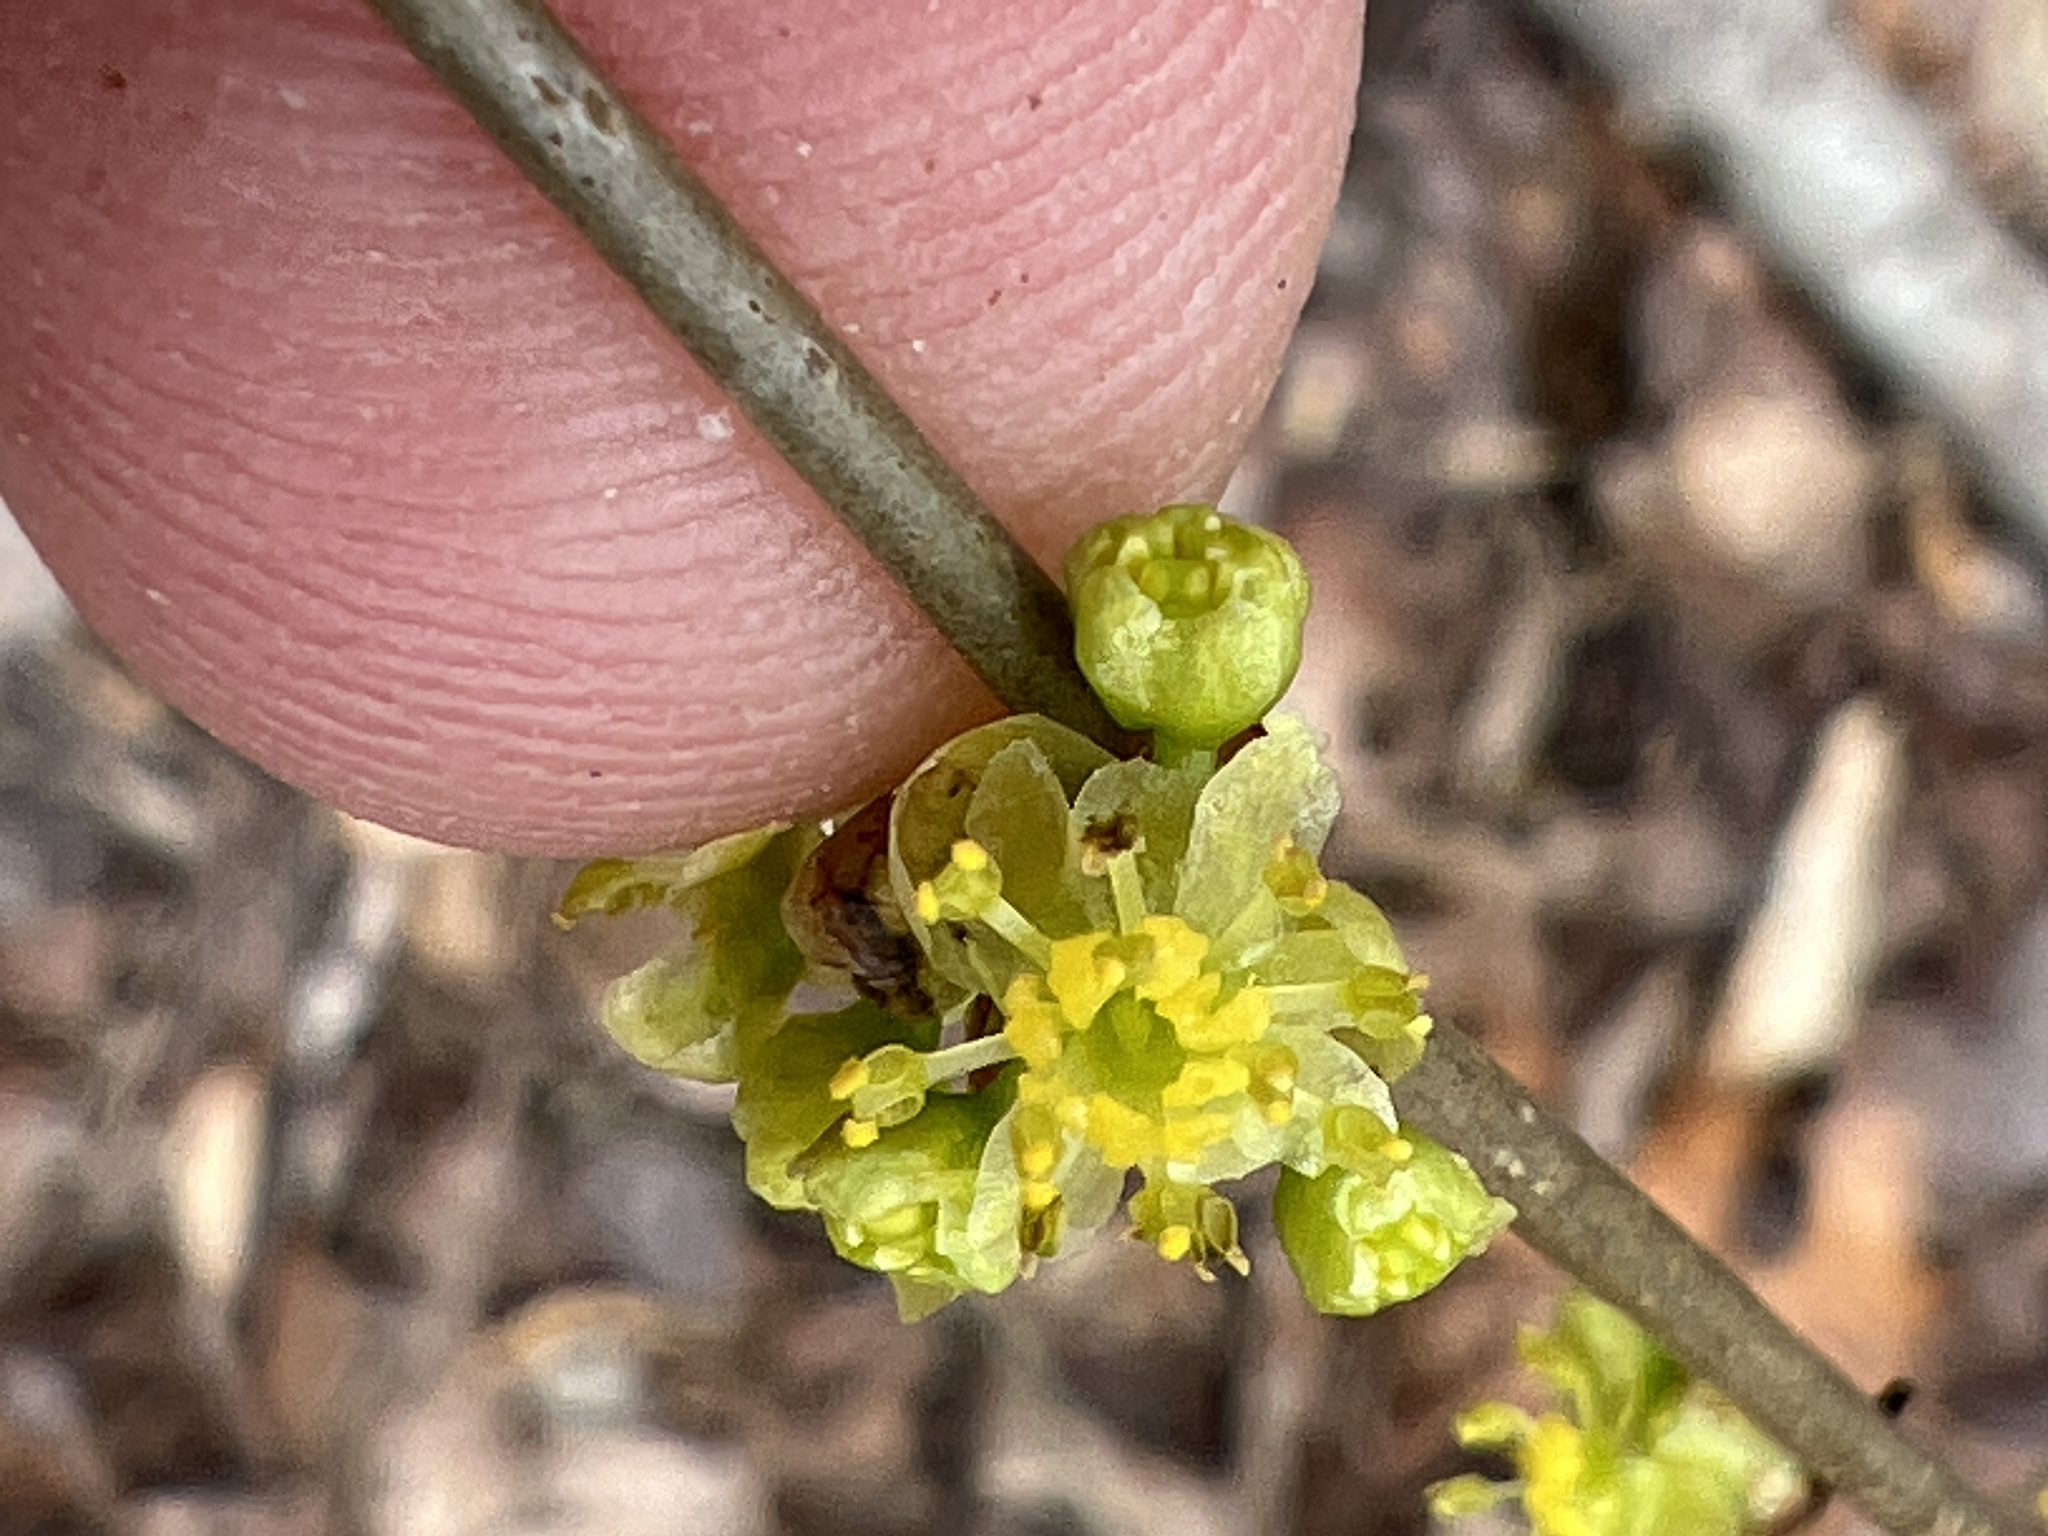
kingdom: Plantae
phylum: Tracheophyta
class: Magnoliopsida
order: Laurales
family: Lauraceae
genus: Lindera
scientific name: Lindera benzoin
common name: Spicebush
